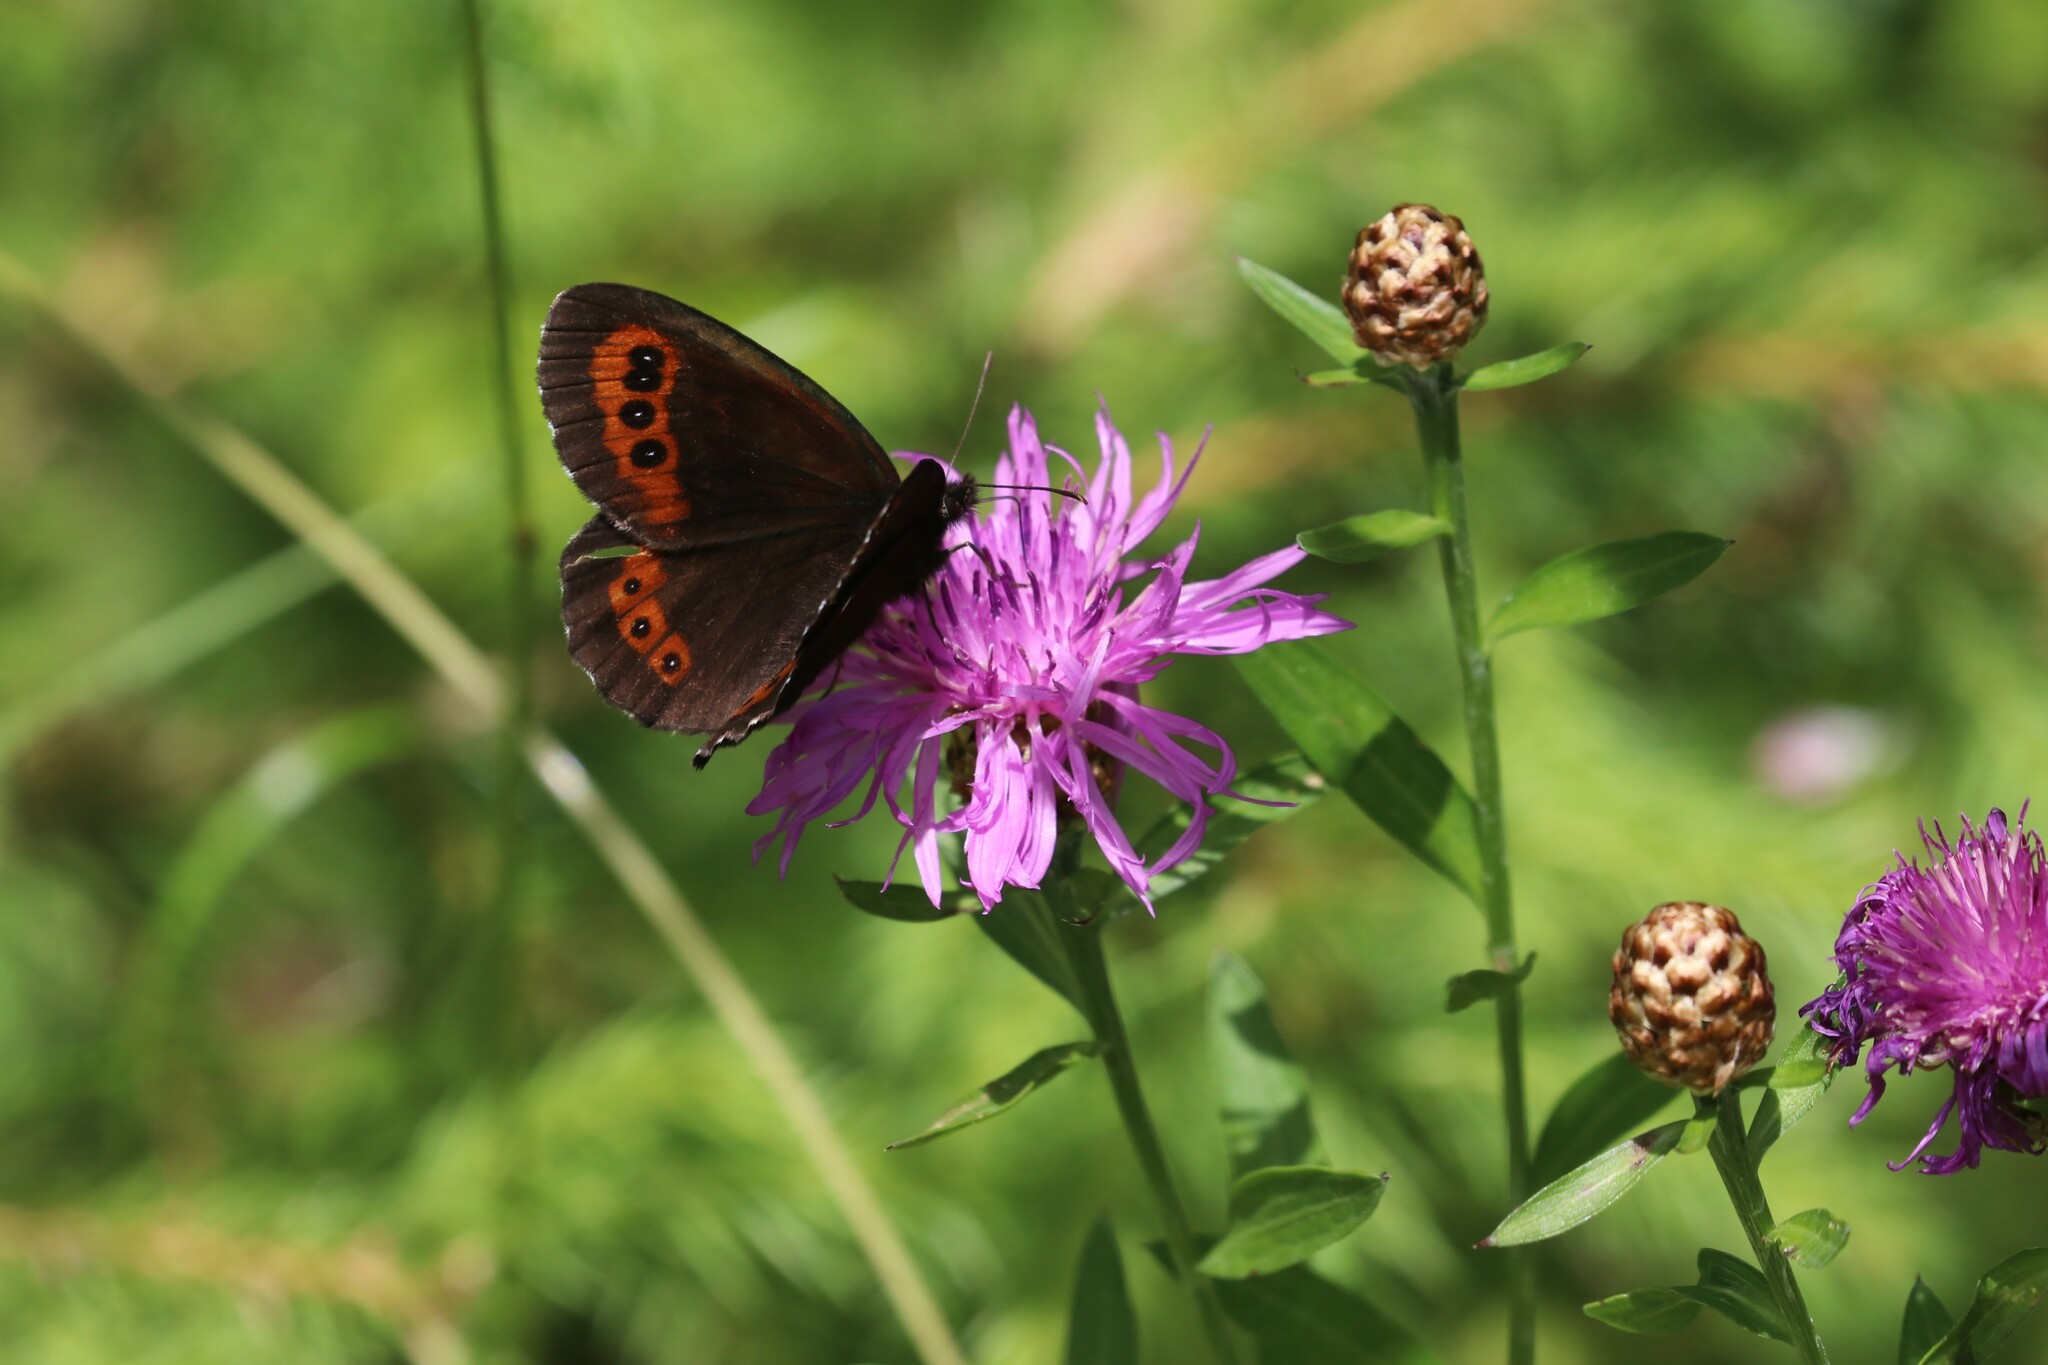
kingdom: Animalia
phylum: Arthropoda
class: Insecta
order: Lepidoptera
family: Nymphalidae
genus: Erebia
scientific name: Erebia ligea
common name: Arran brown
